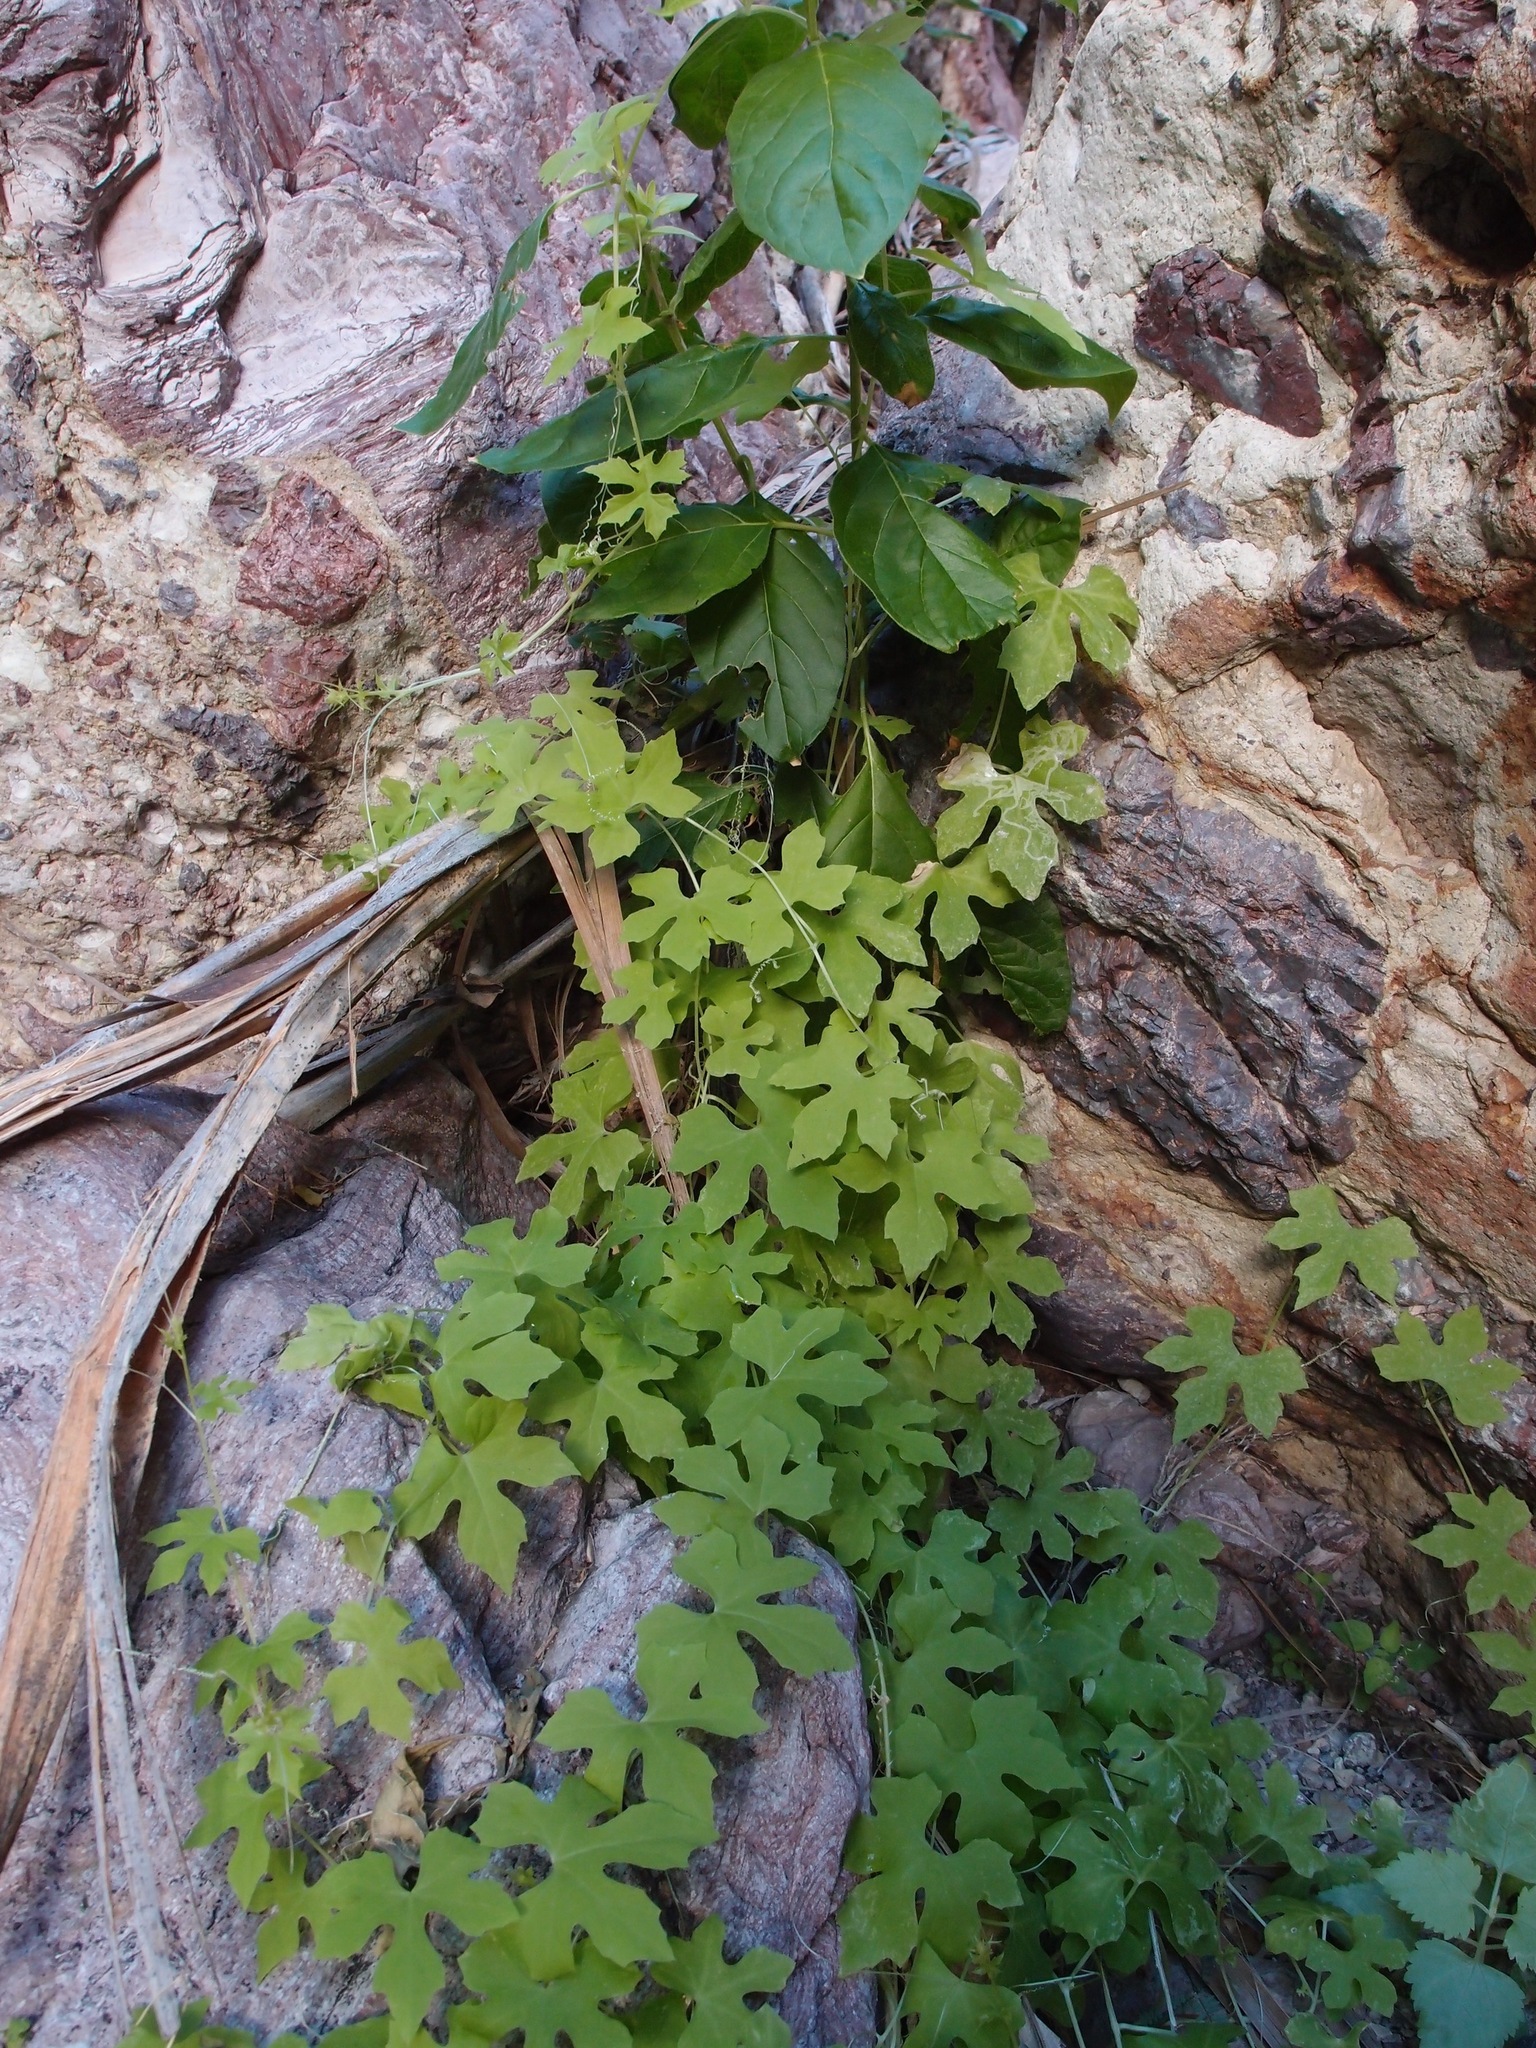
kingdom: Plantae
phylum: Tracheophyta
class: Magnoliopsida
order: Cucurbitales
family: Cucurbitaceae
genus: Echinopepon
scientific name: Echinopepon insularis
